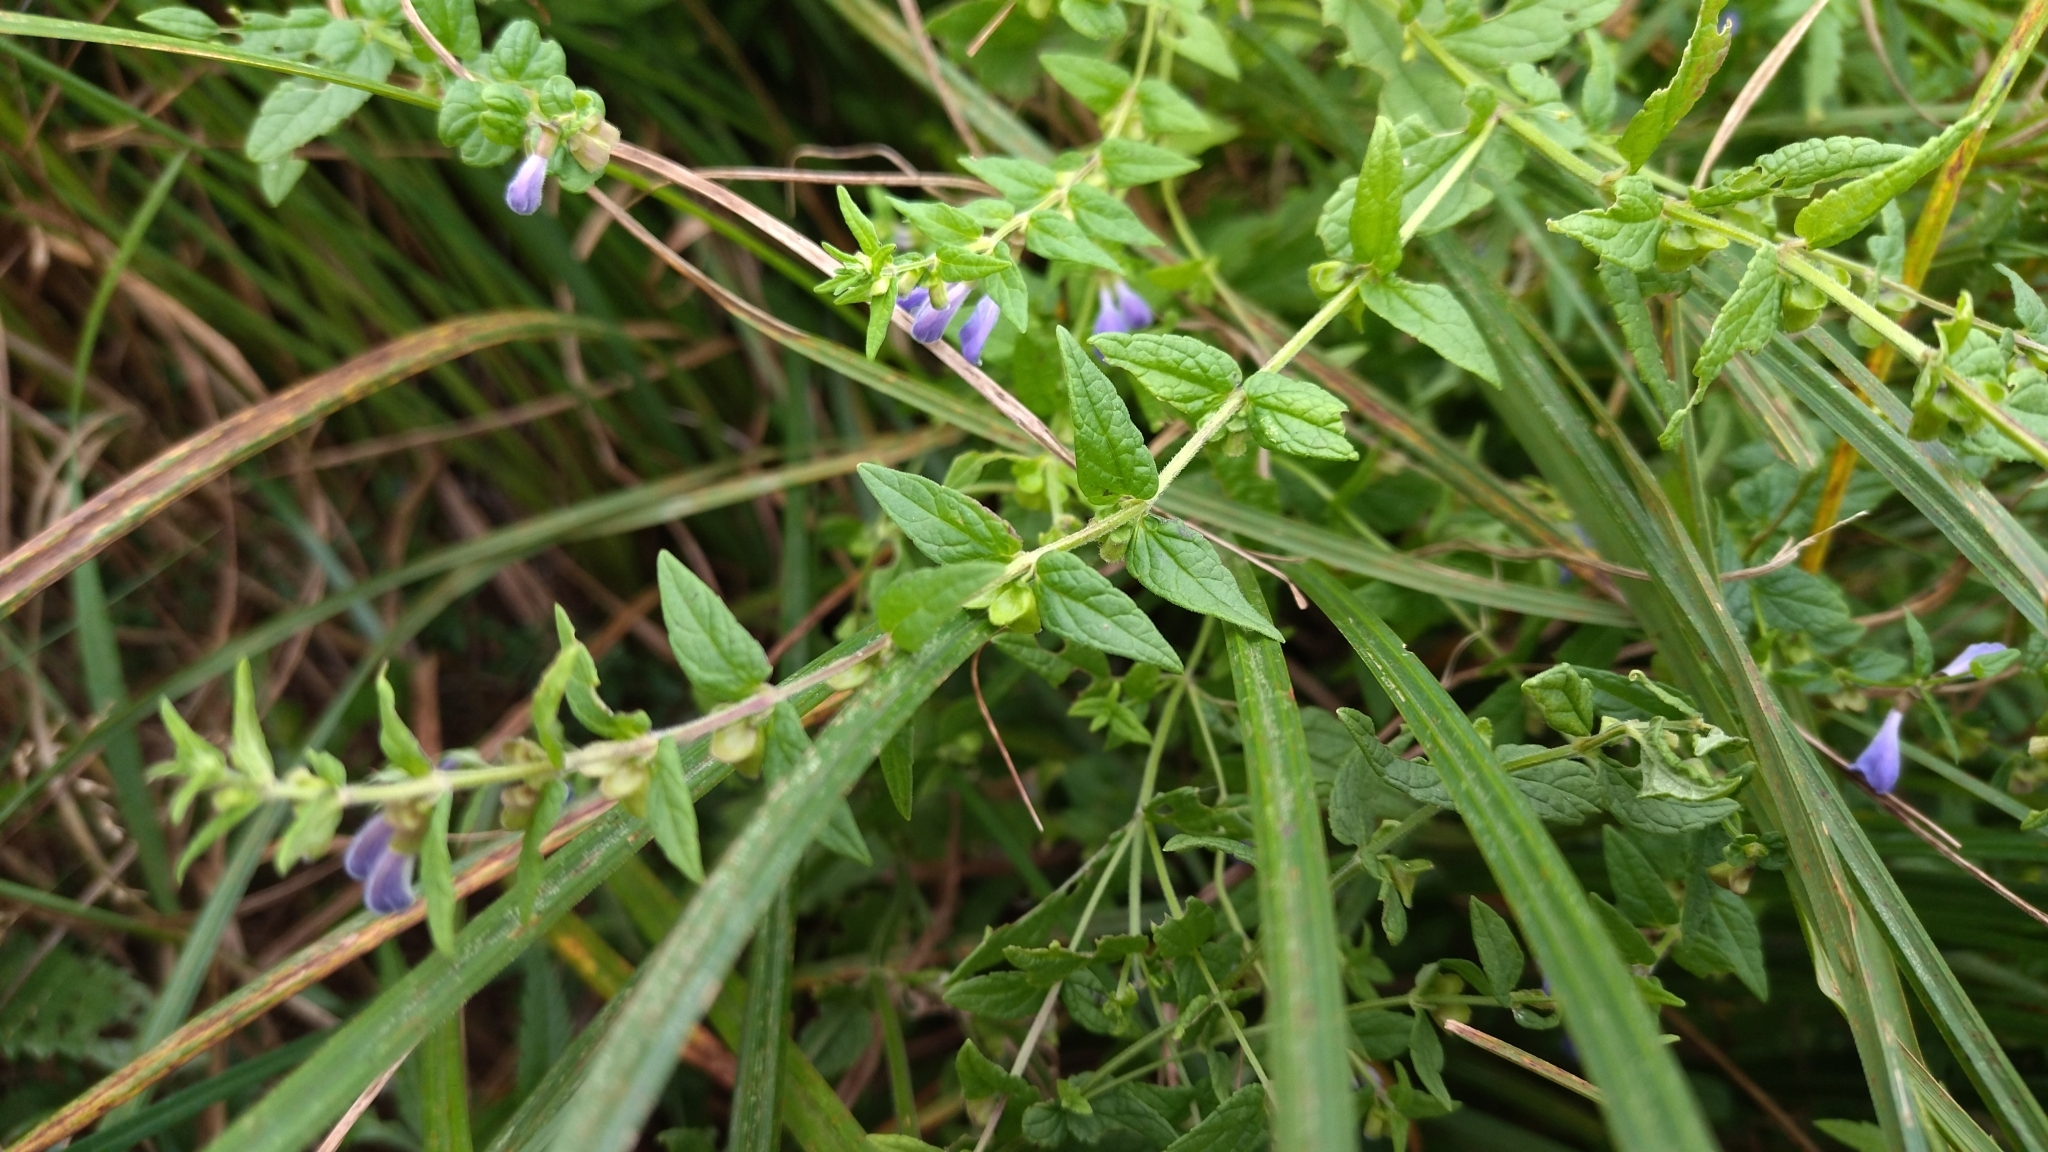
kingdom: Plantae
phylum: Tracheophyta
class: Magnoliopsida
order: Lamiales
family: Lamiaceae
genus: Scutellaria
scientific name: Scutellaria galericulata
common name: Skullcap
